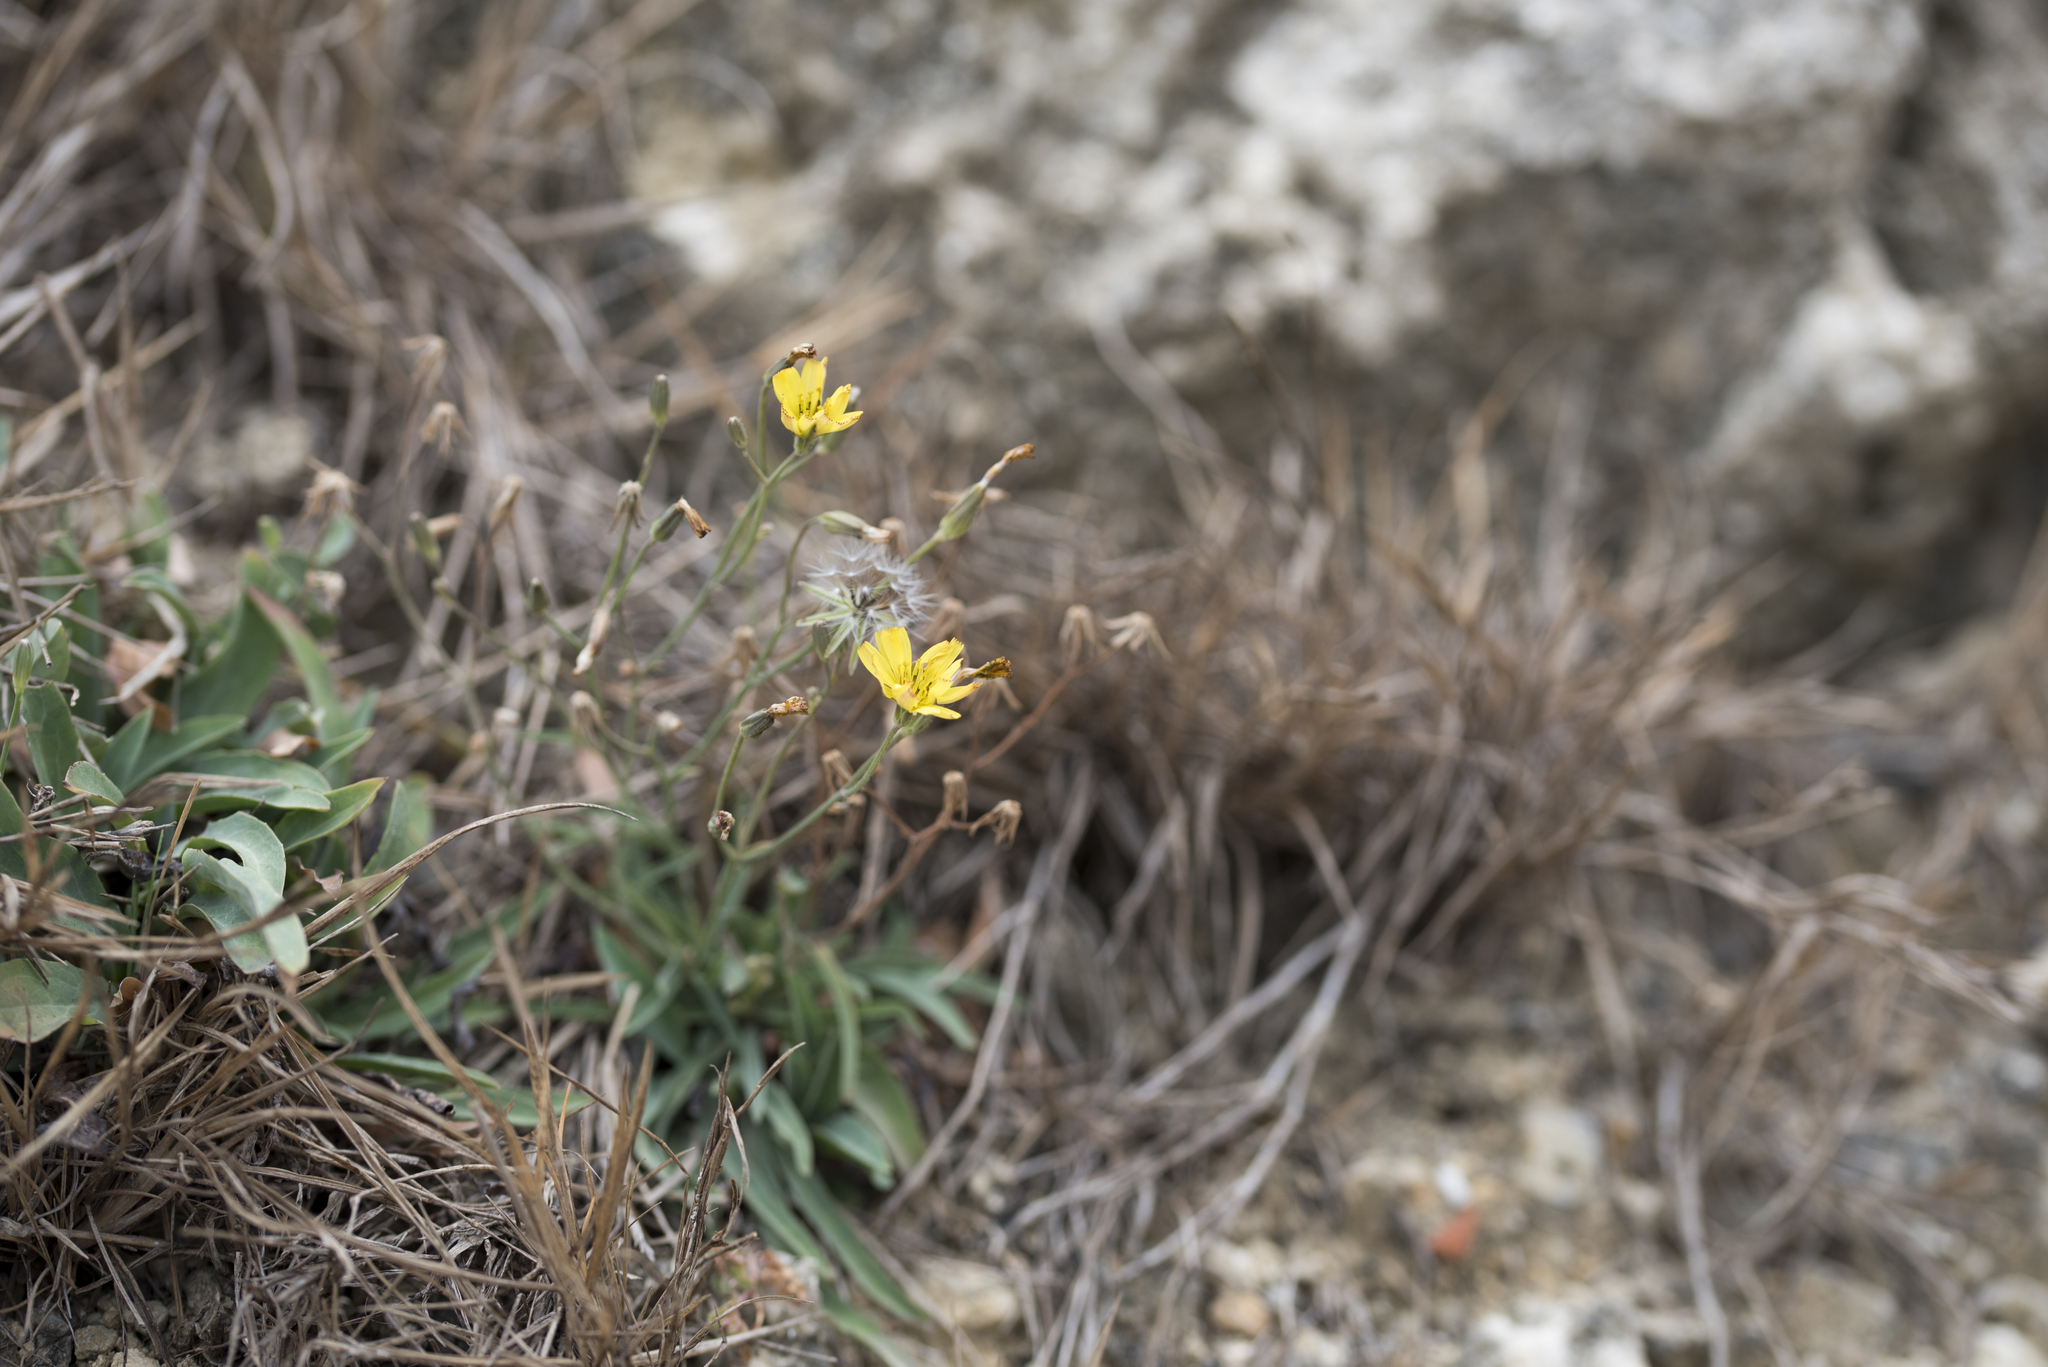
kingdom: Plantae
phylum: Tracheophyta
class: Magnoliopsida
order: Asterales
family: Asteraceae
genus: Ixeris
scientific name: Ixeris chinensis
